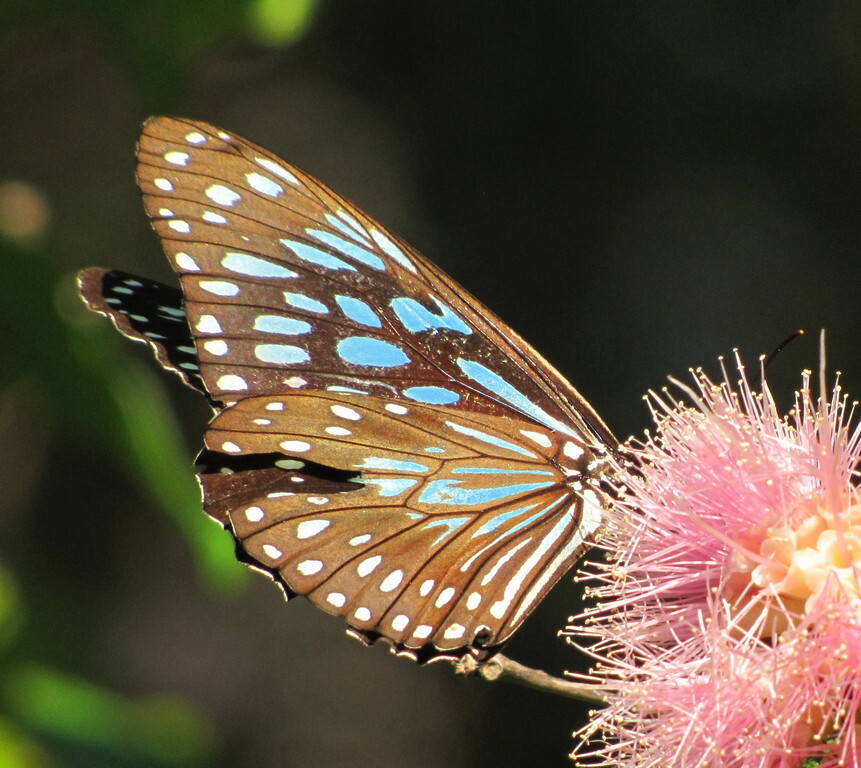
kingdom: Animalia
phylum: Arthropoda
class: Insecta
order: Lepidoptera
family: Nymphalidae
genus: Tirumala
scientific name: Tirumala hamata
